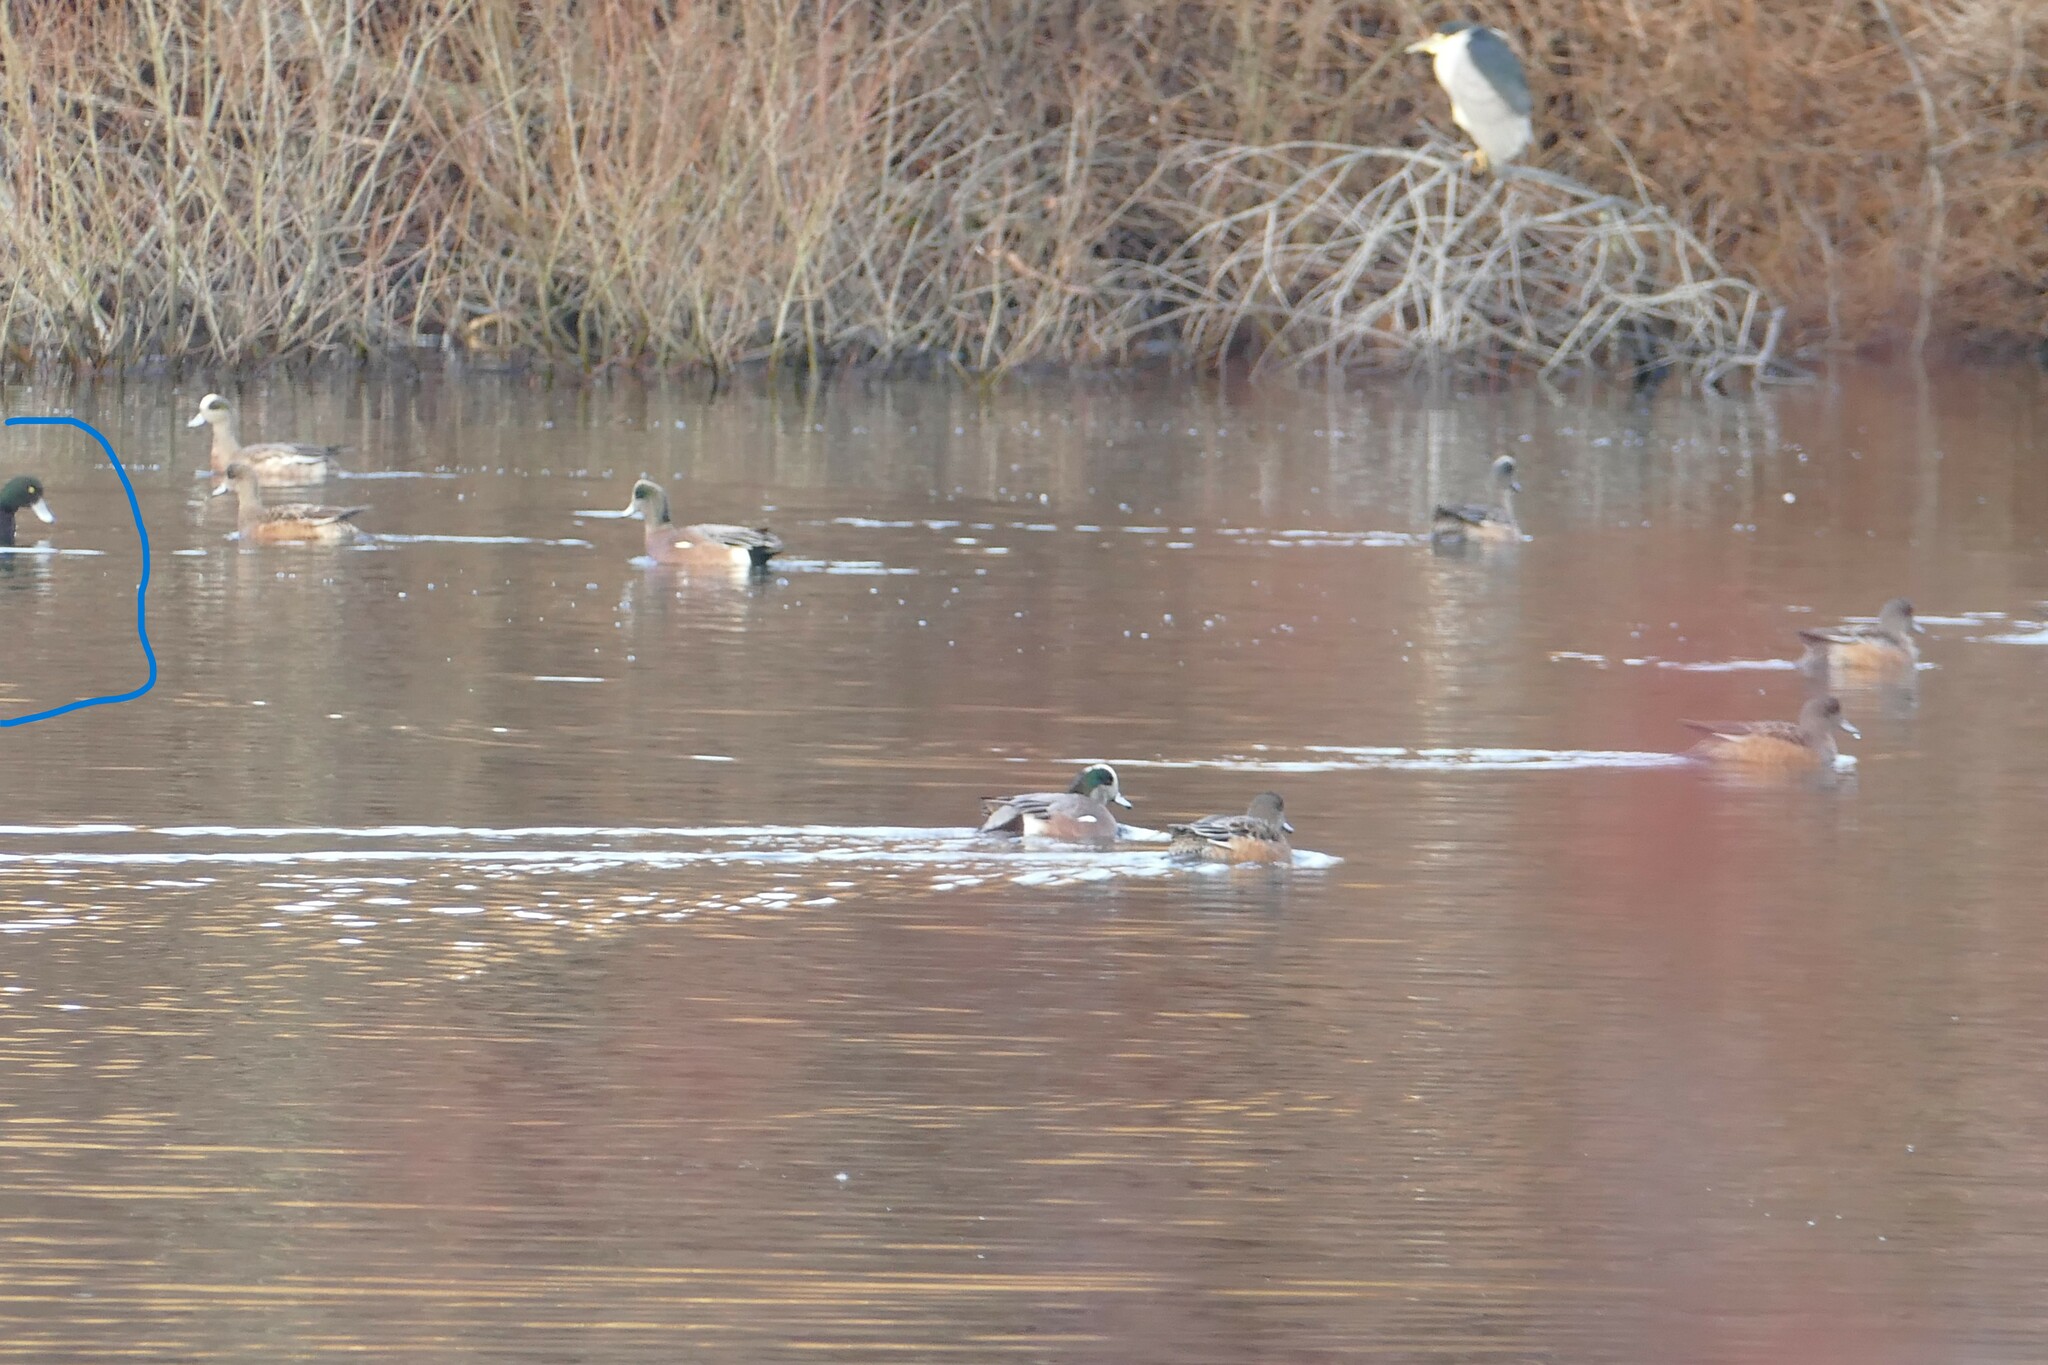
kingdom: Animalia
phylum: Chordata
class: Aves
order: Anseriformes
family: Anatidae
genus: Aythya
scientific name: Aythya marila
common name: Greater scaup
